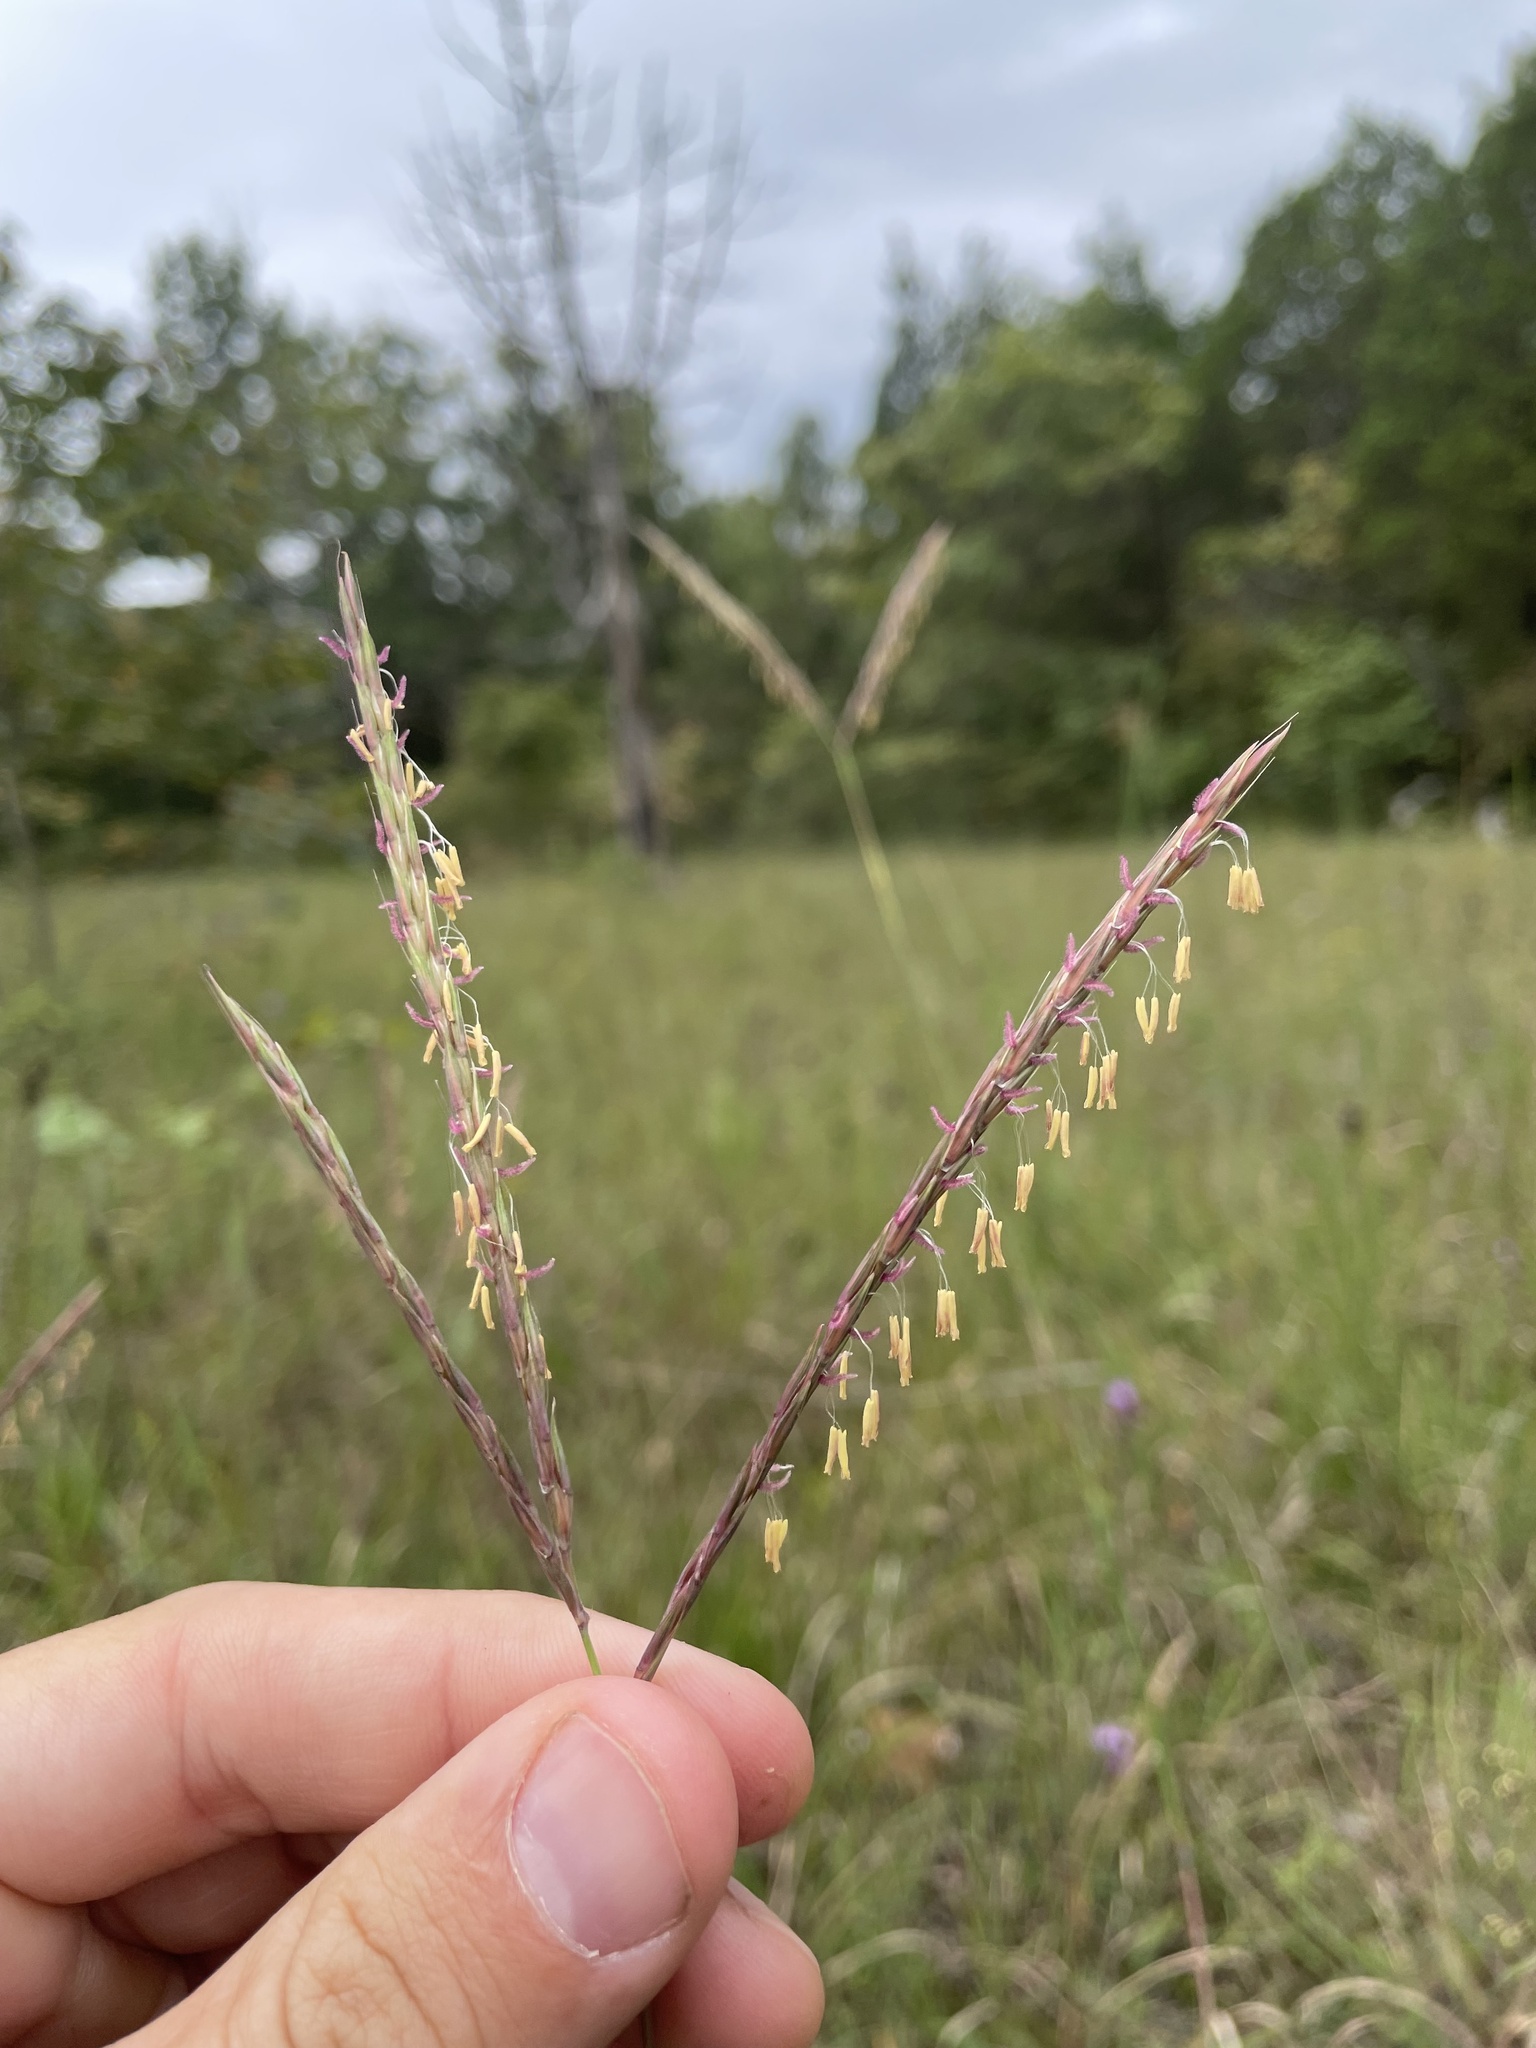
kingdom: Plantae
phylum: Tracheophyta
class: Liliopsida
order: Poales
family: Poaceae
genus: Andropogon
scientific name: Andropogon gerardi
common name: Big bluestem
